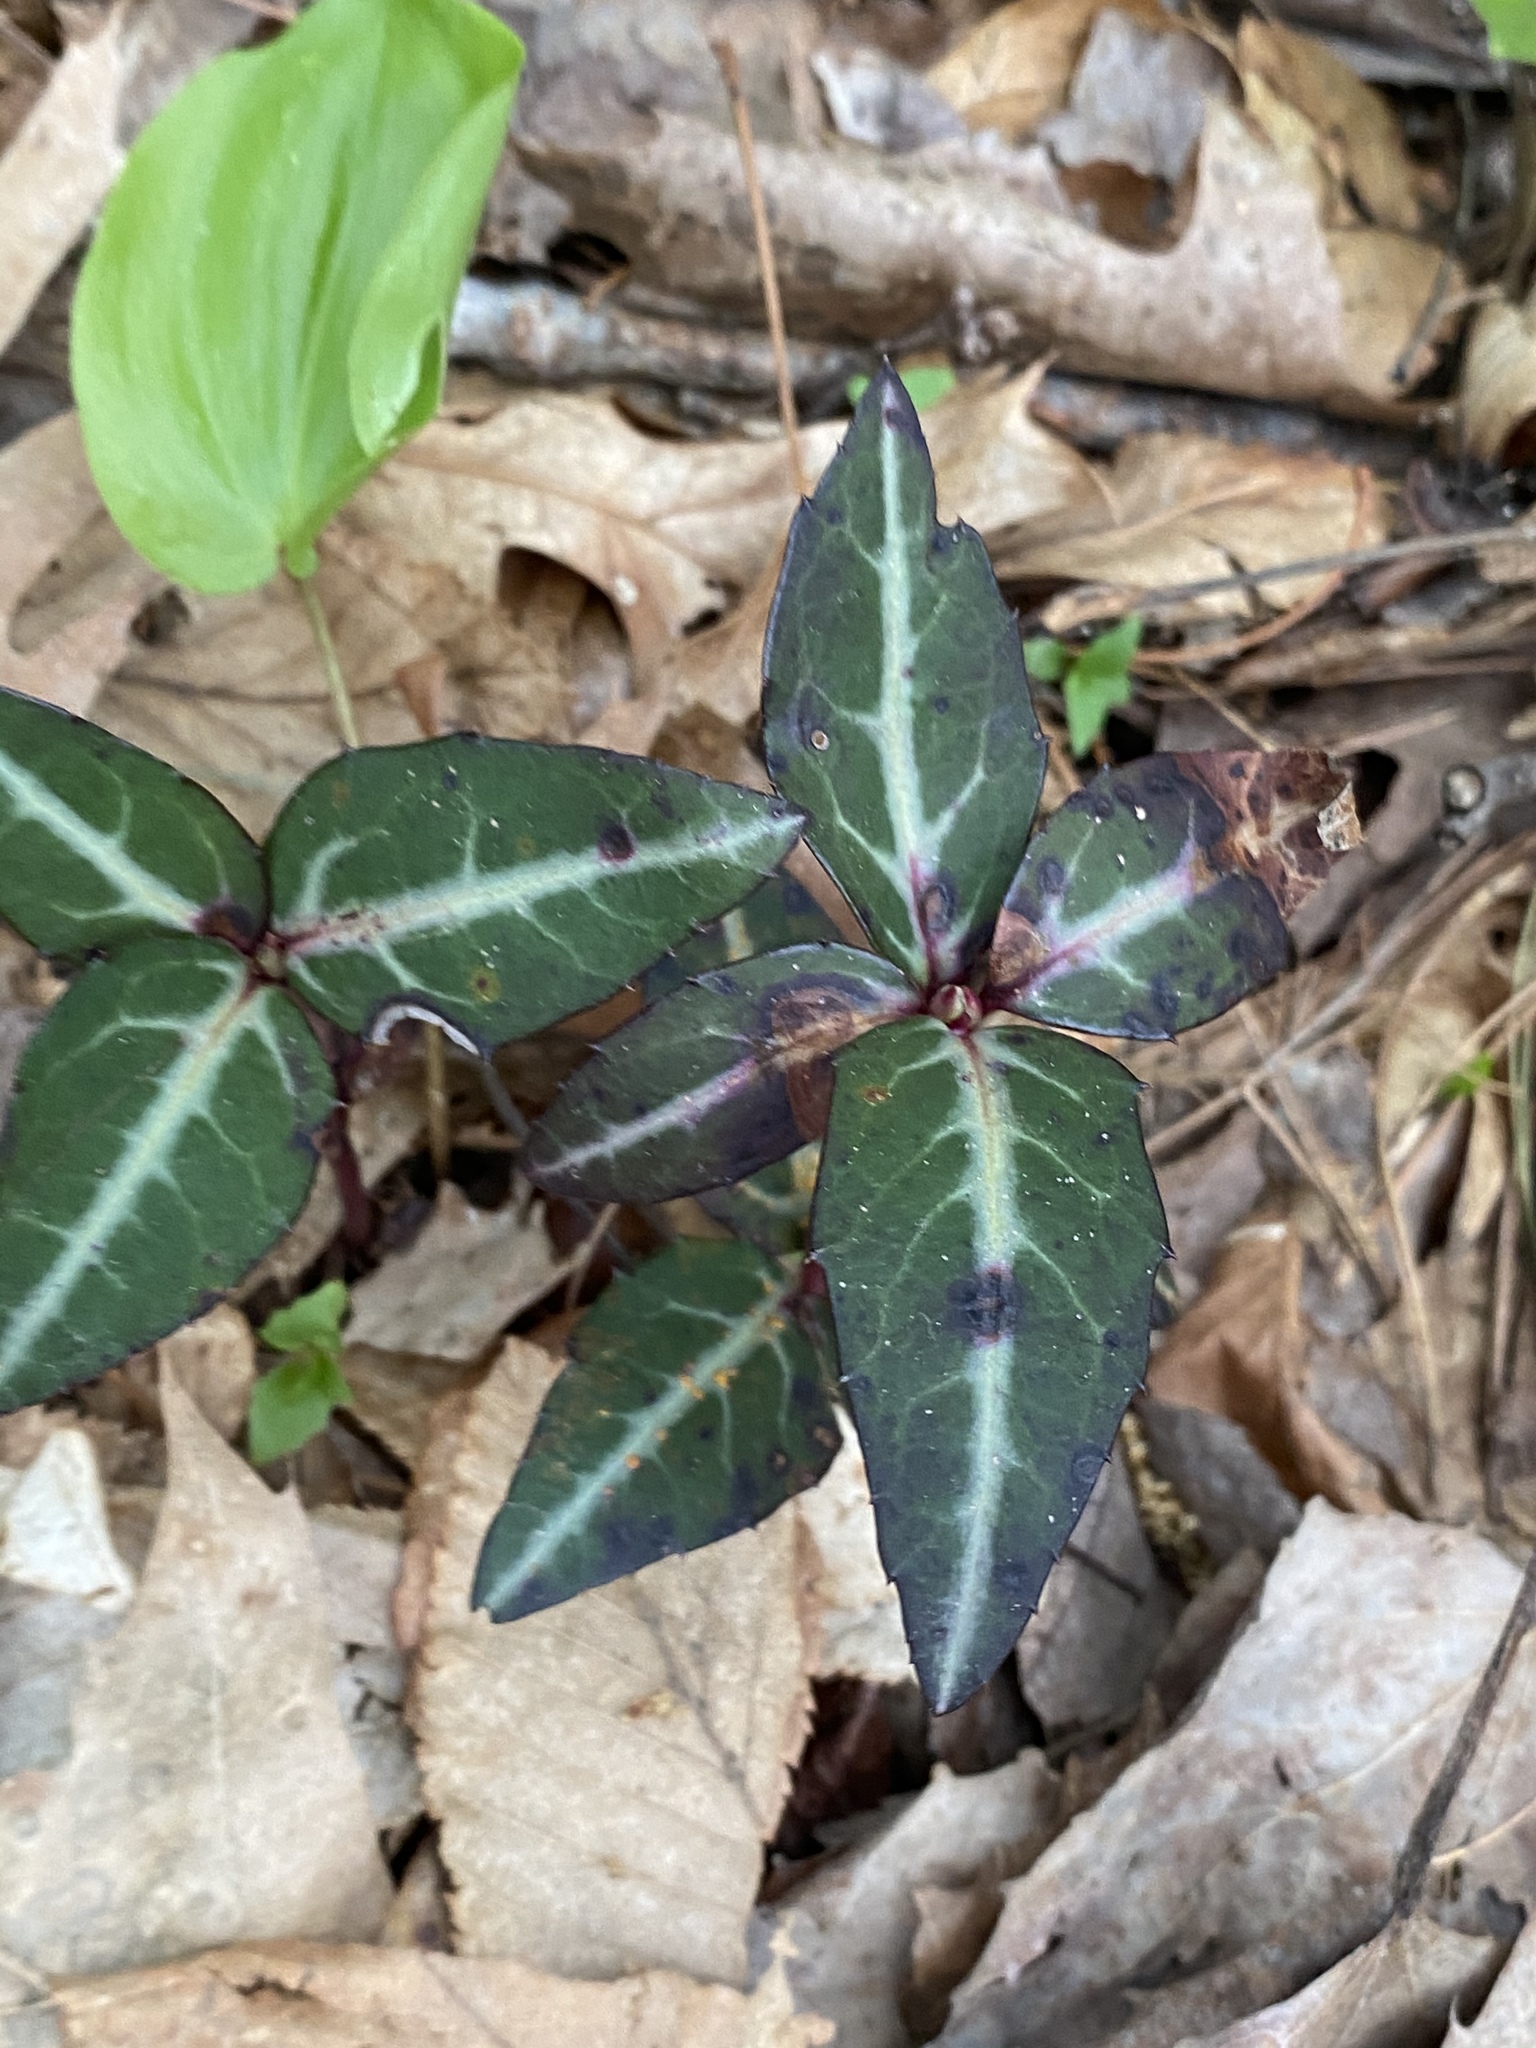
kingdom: Plantae
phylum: Tracheophyta
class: Magnoliopsida
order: Ericales
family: Ericaceae
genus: Chimaphila
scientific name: Chimaphila maculata
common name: Spotted pipsissewa
